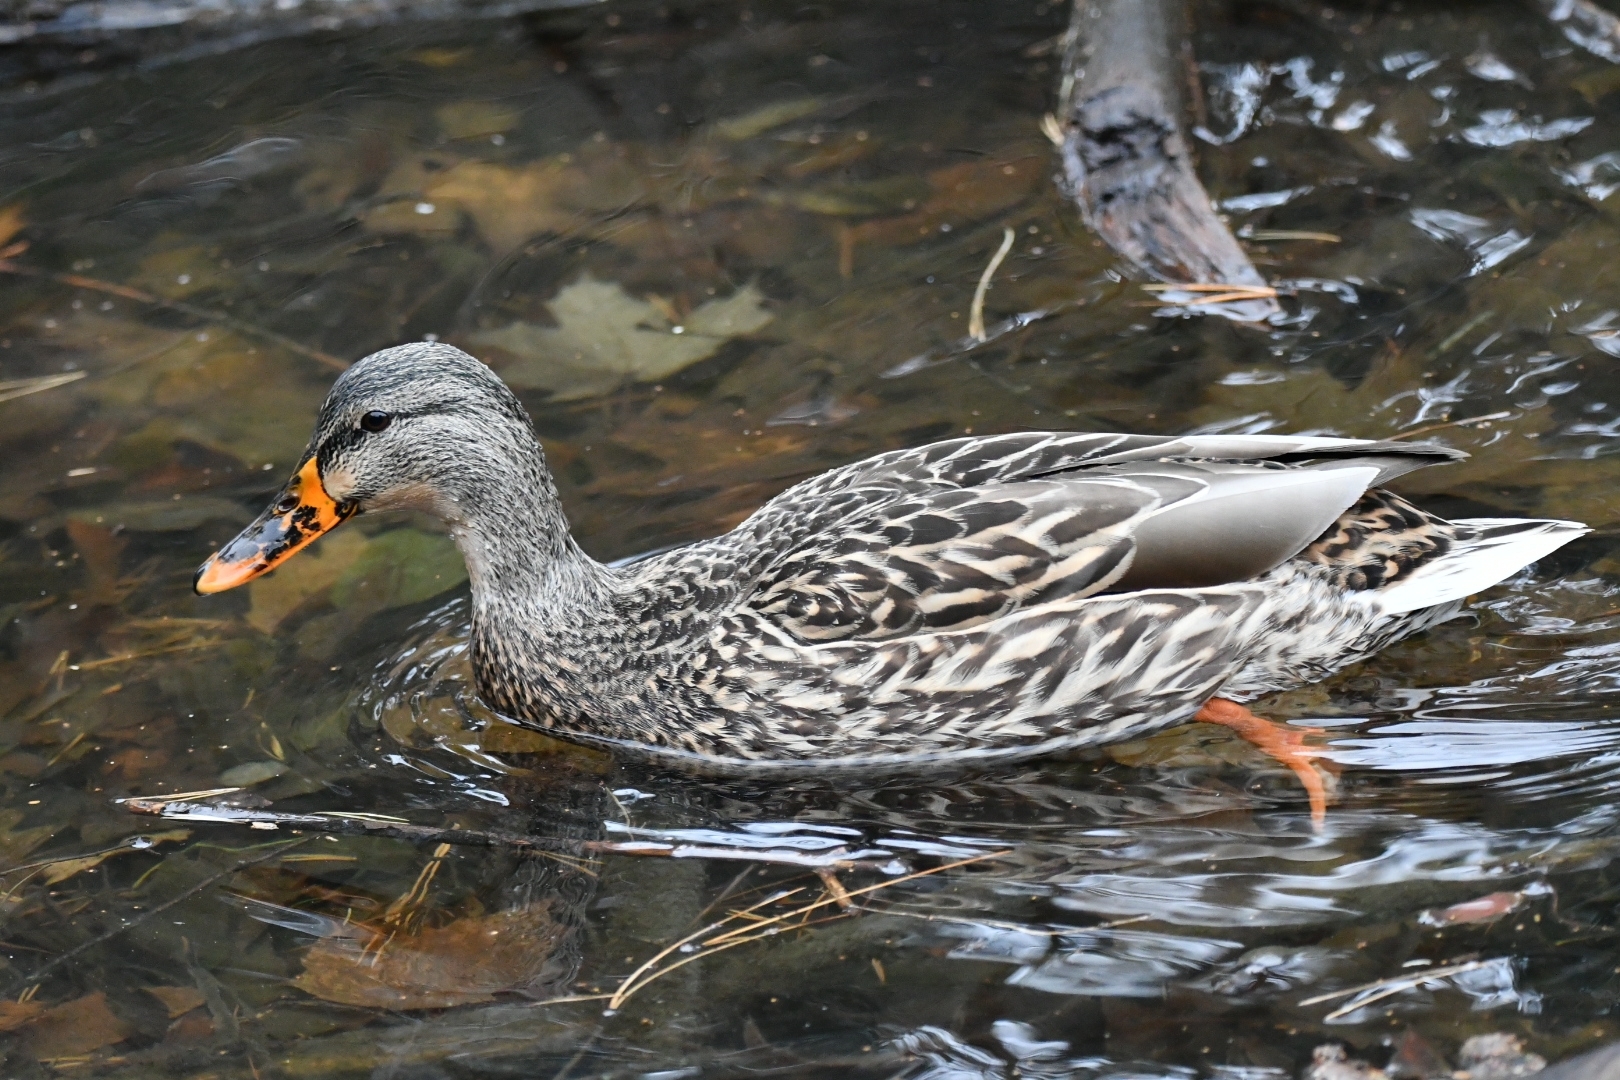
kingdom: Animalia
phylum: Chordata
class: Aves
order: Anseriformes
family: Anatidae
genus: Anas
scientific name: Anas platyrhynchos
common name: Mallard
